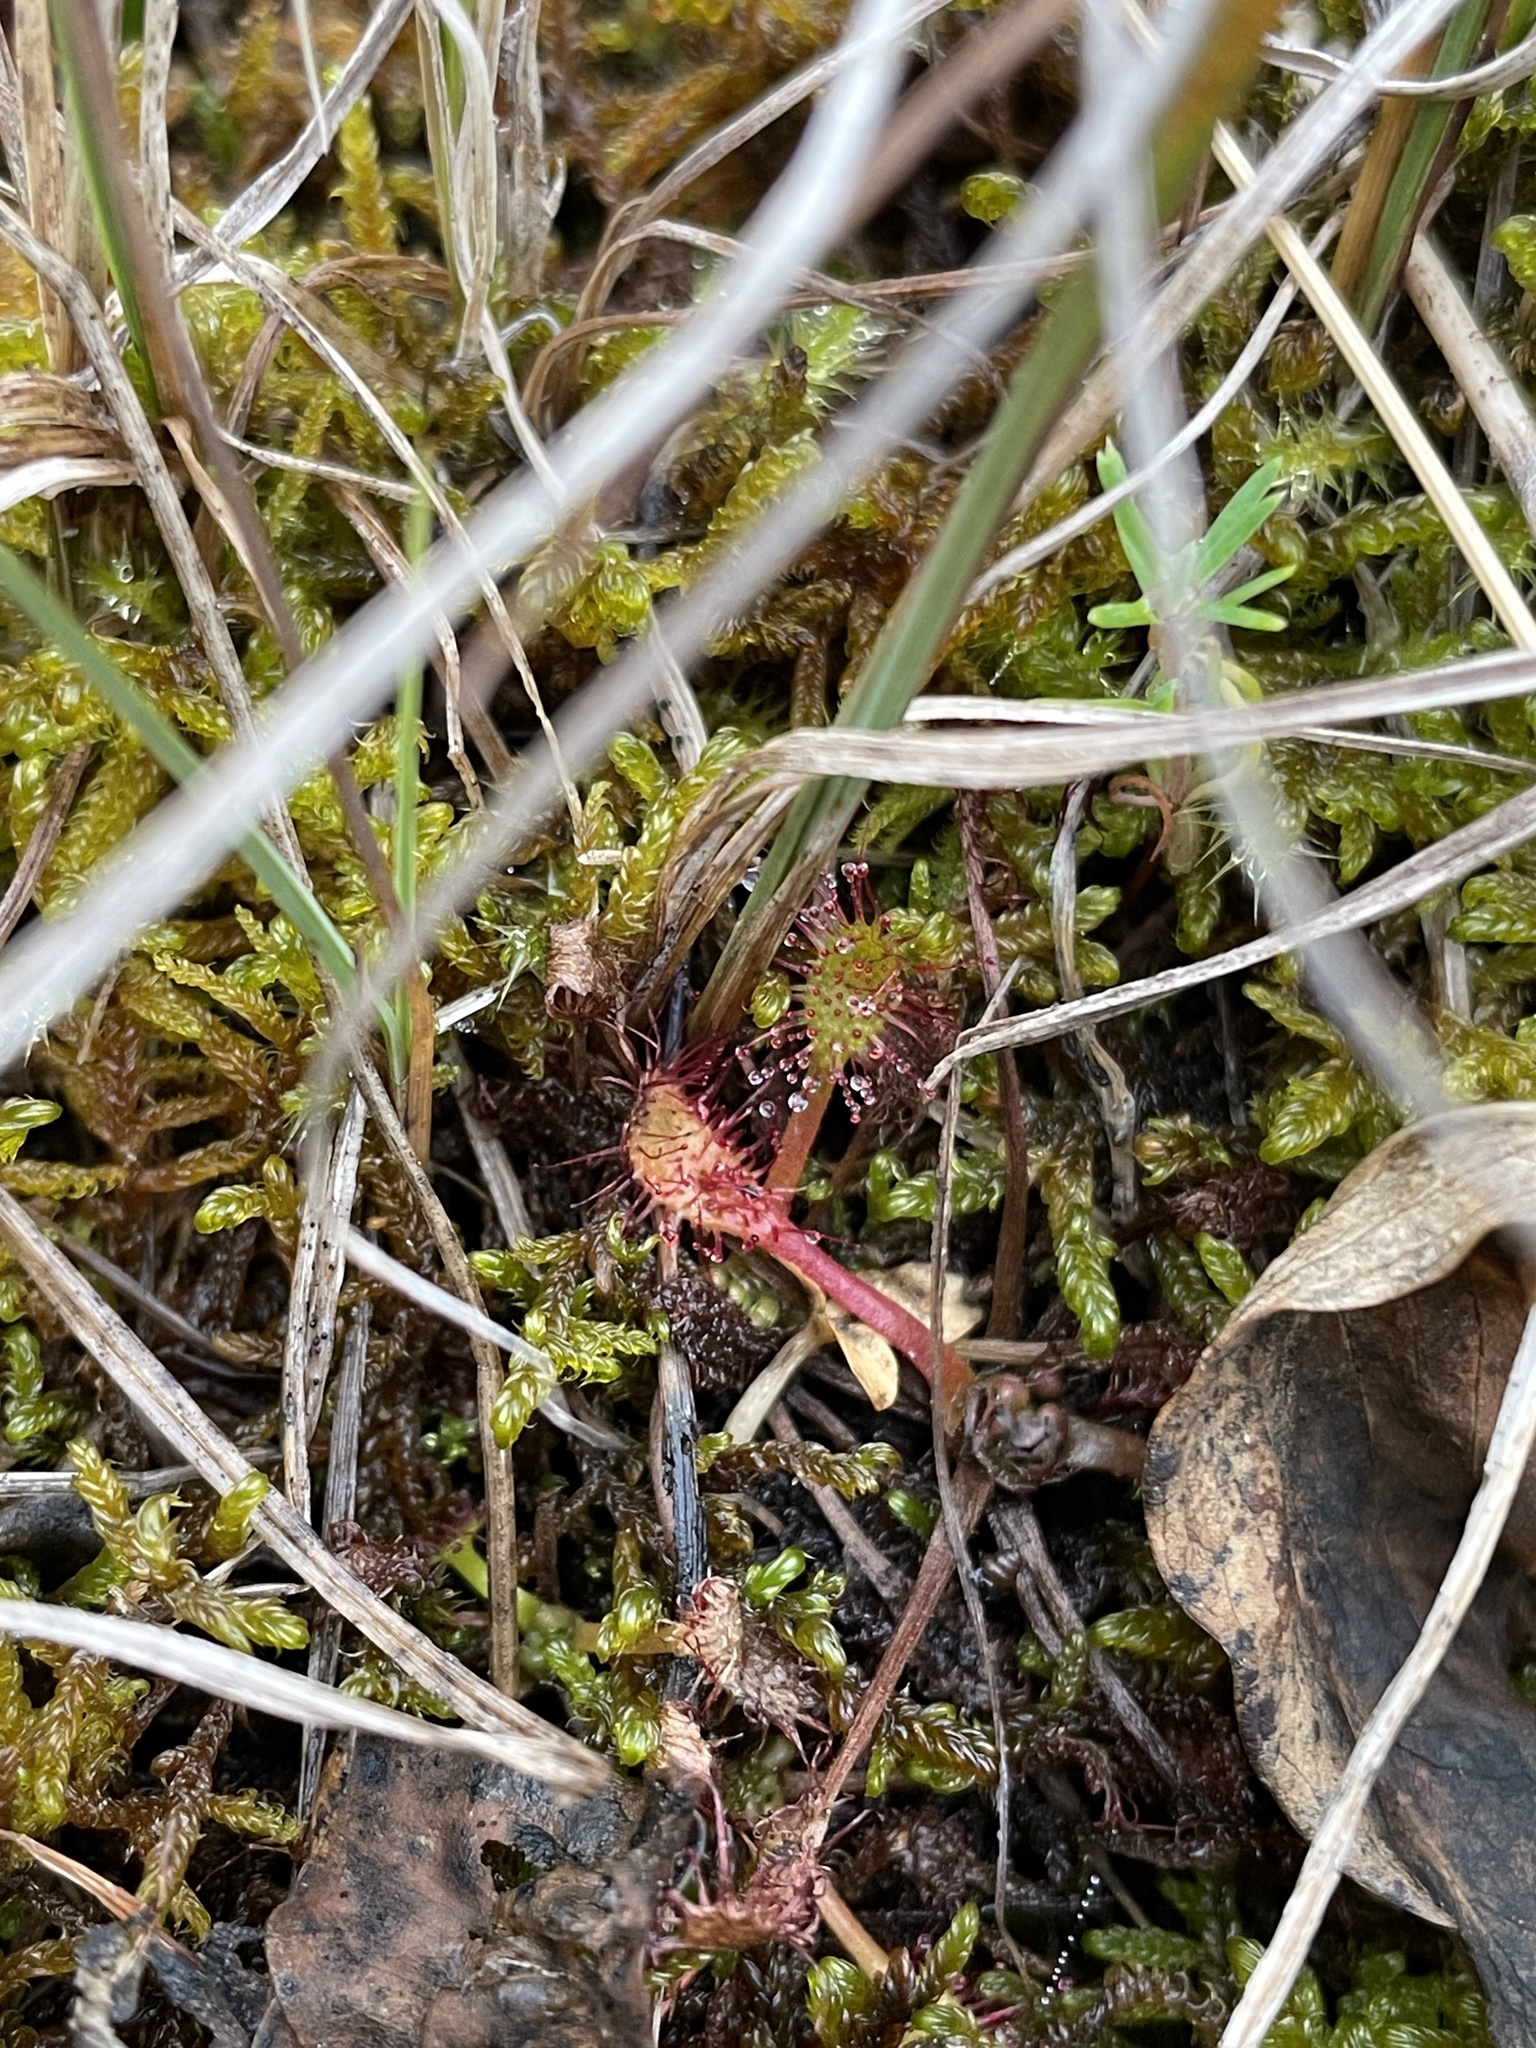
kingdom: Plantae
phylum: Tracheophyta
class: Magnoliopsida
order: Caryophyllales
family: Droseraceae
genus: Drosera
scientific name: Drosera anglica
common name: Great sundew
